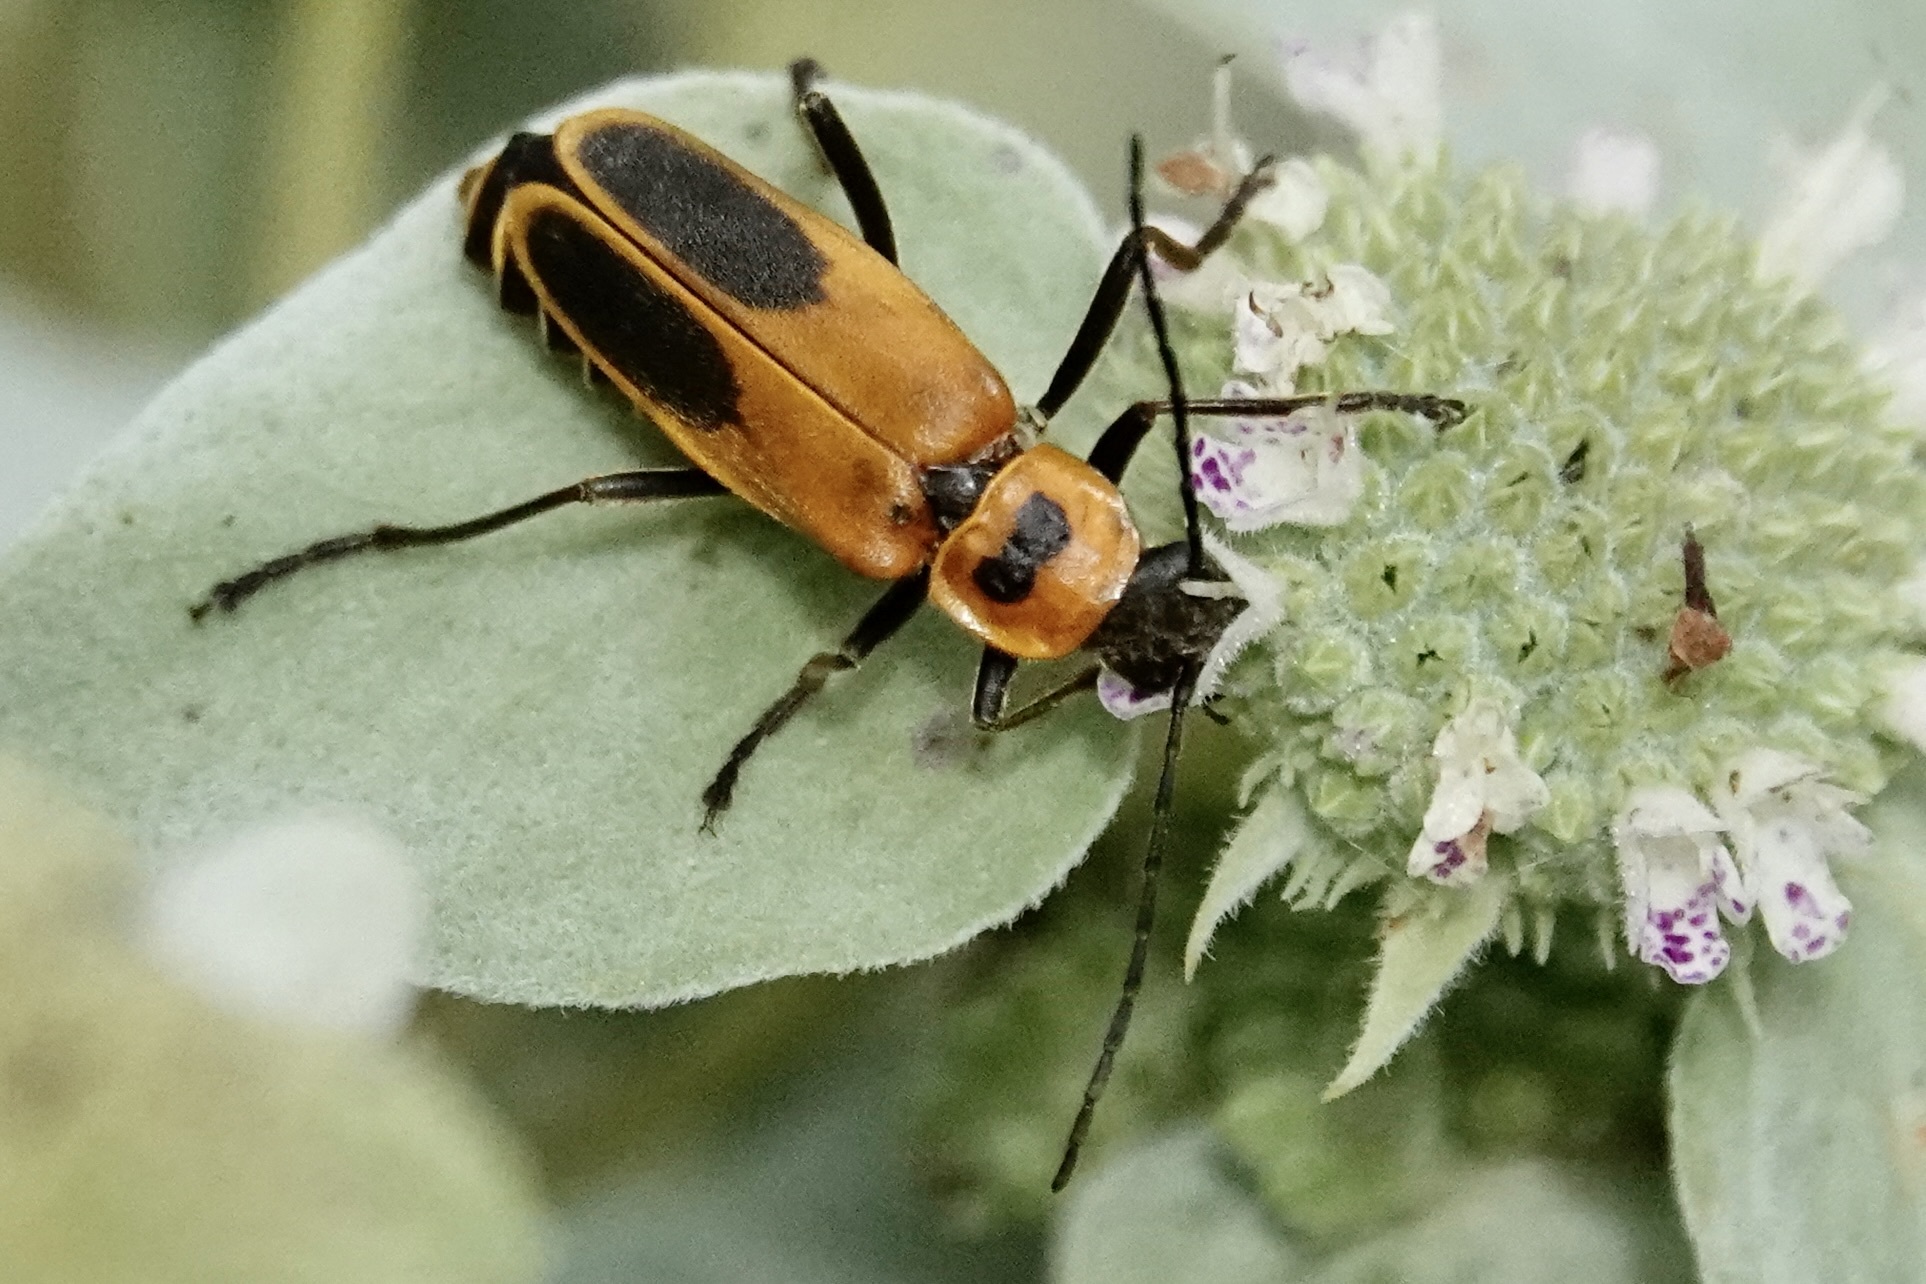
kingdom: Animalia
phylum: Arthropoda
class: Insecta
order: Coleoptera
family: Cantharidae
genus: Chauliognathus
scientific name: Chauliognathus pensylvanicus
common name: Goldenrod soldier beetle
